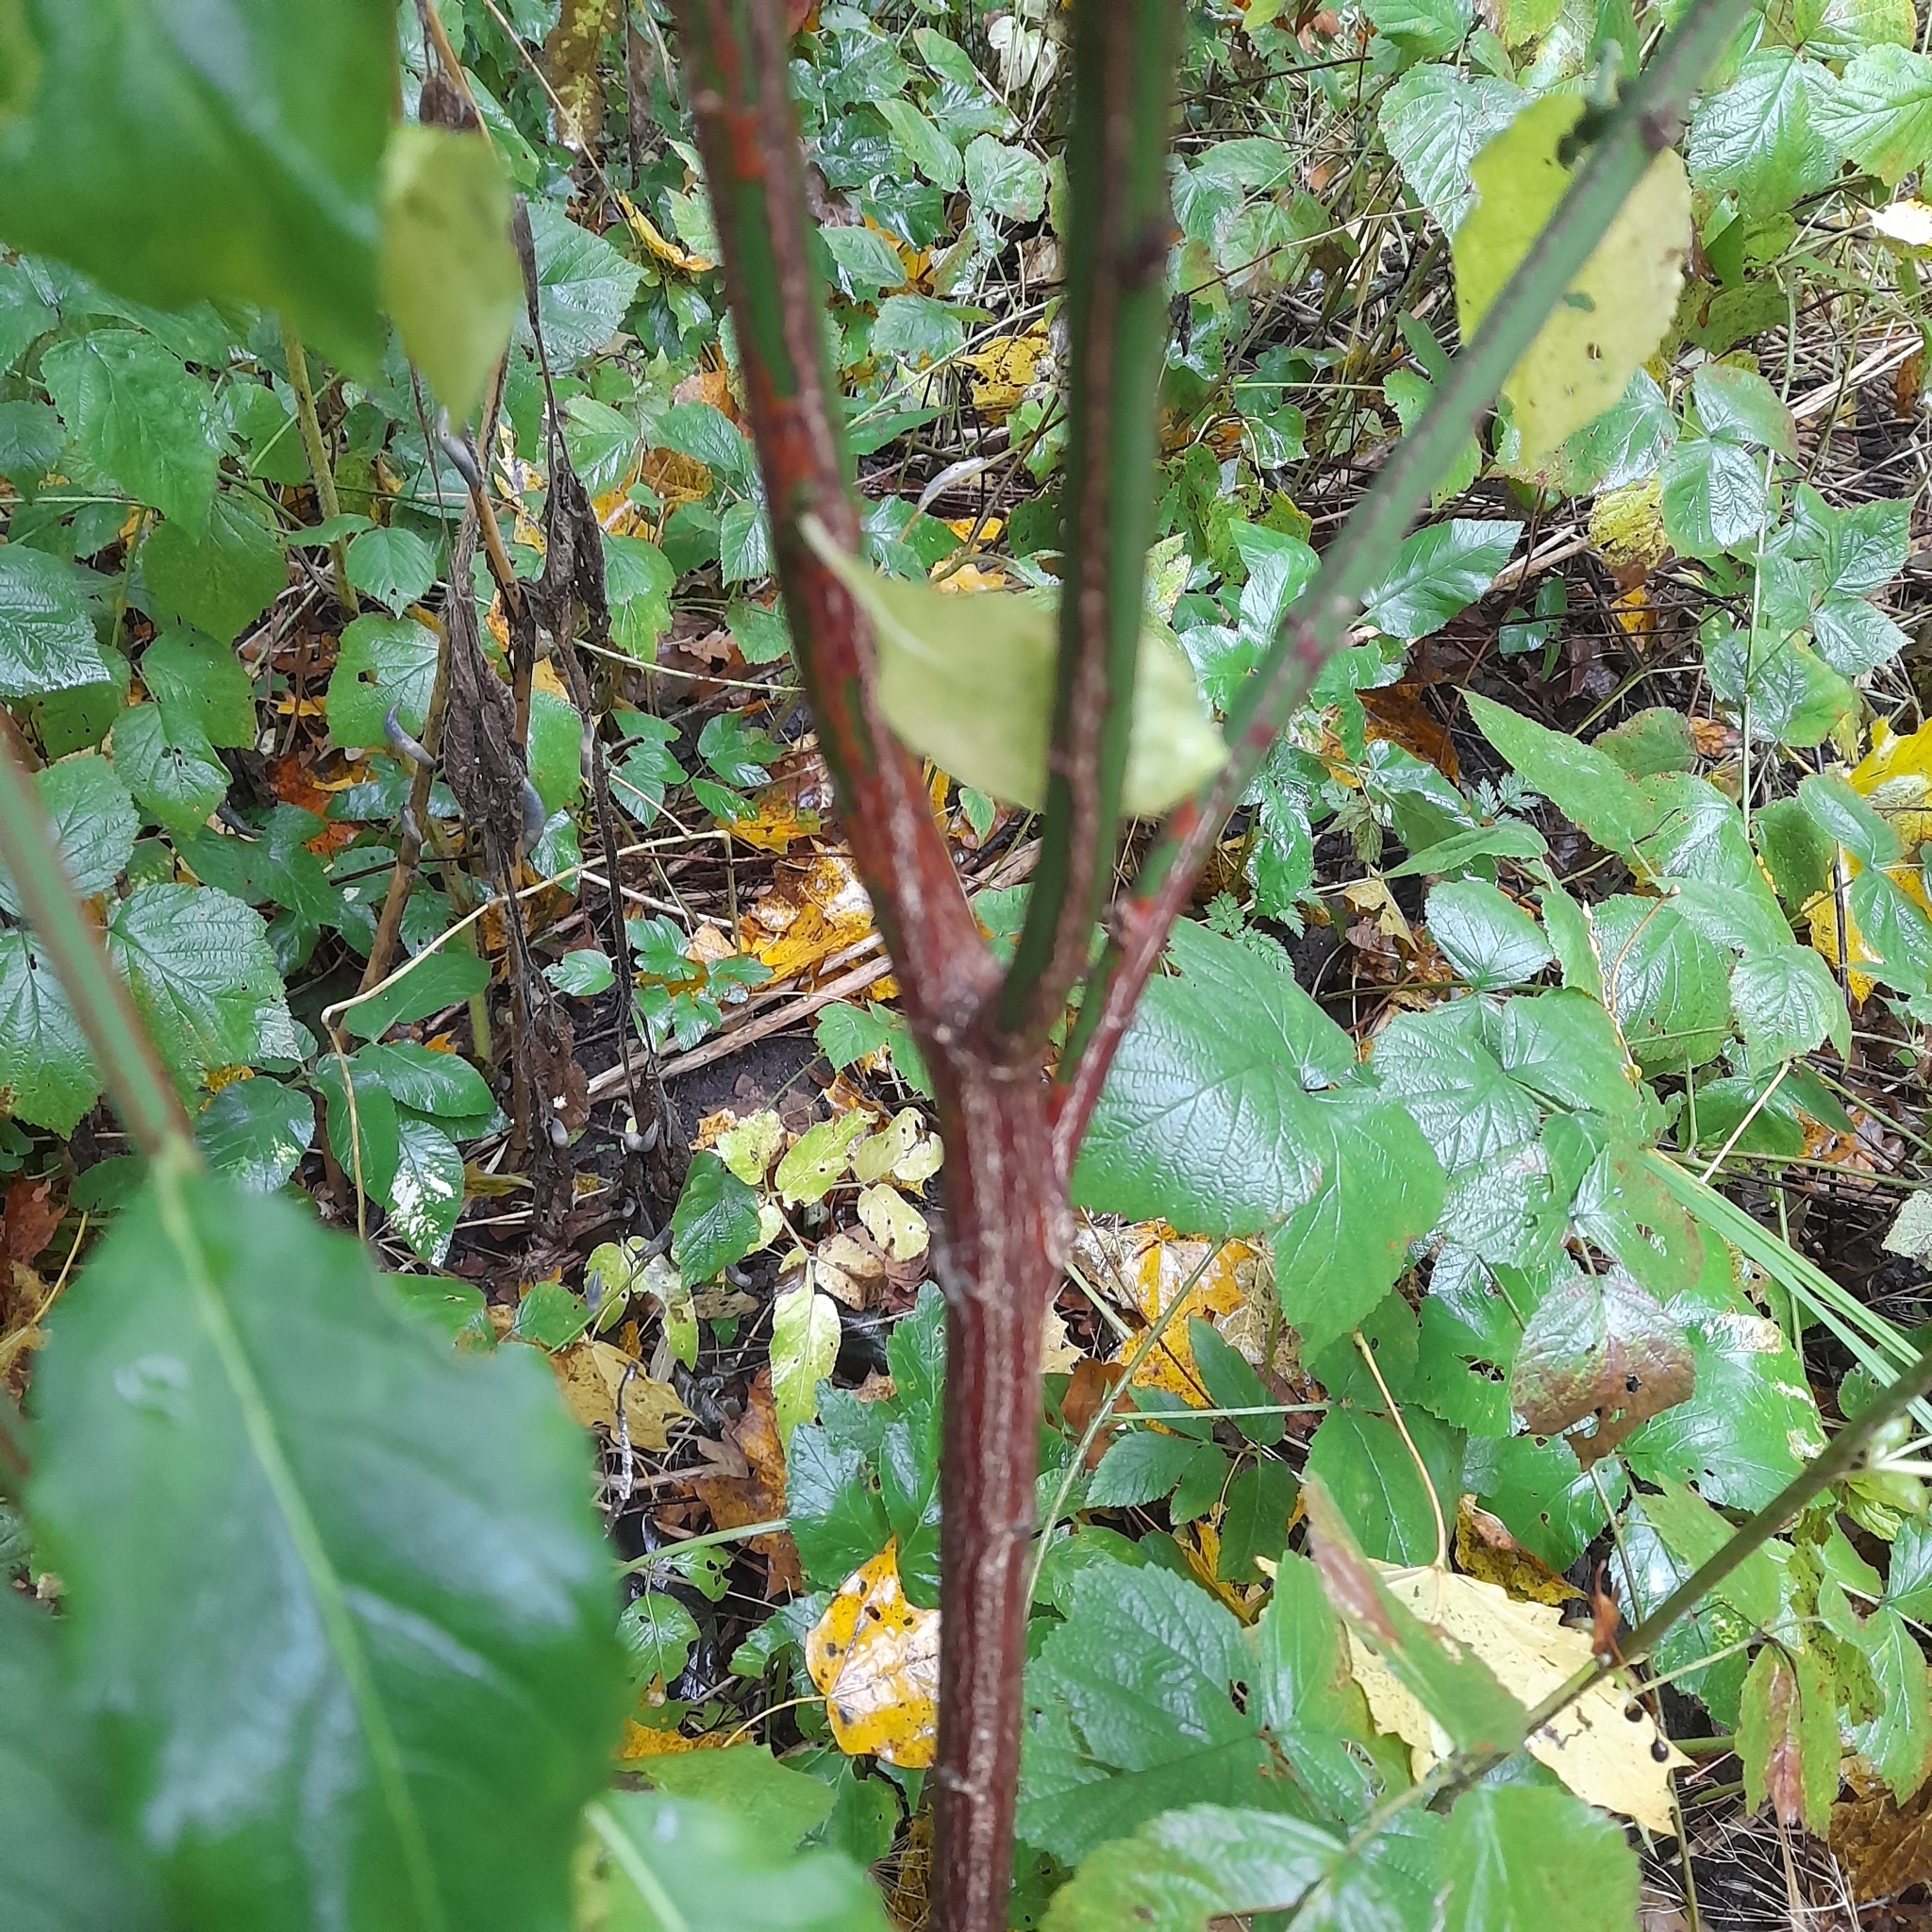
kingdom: Plantae
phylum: Tracheophyta
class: Magnoliopsida
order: Celastrales
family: Celastraceae
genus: Euonymus
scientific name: Euonymus europaeus
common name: Spindle
